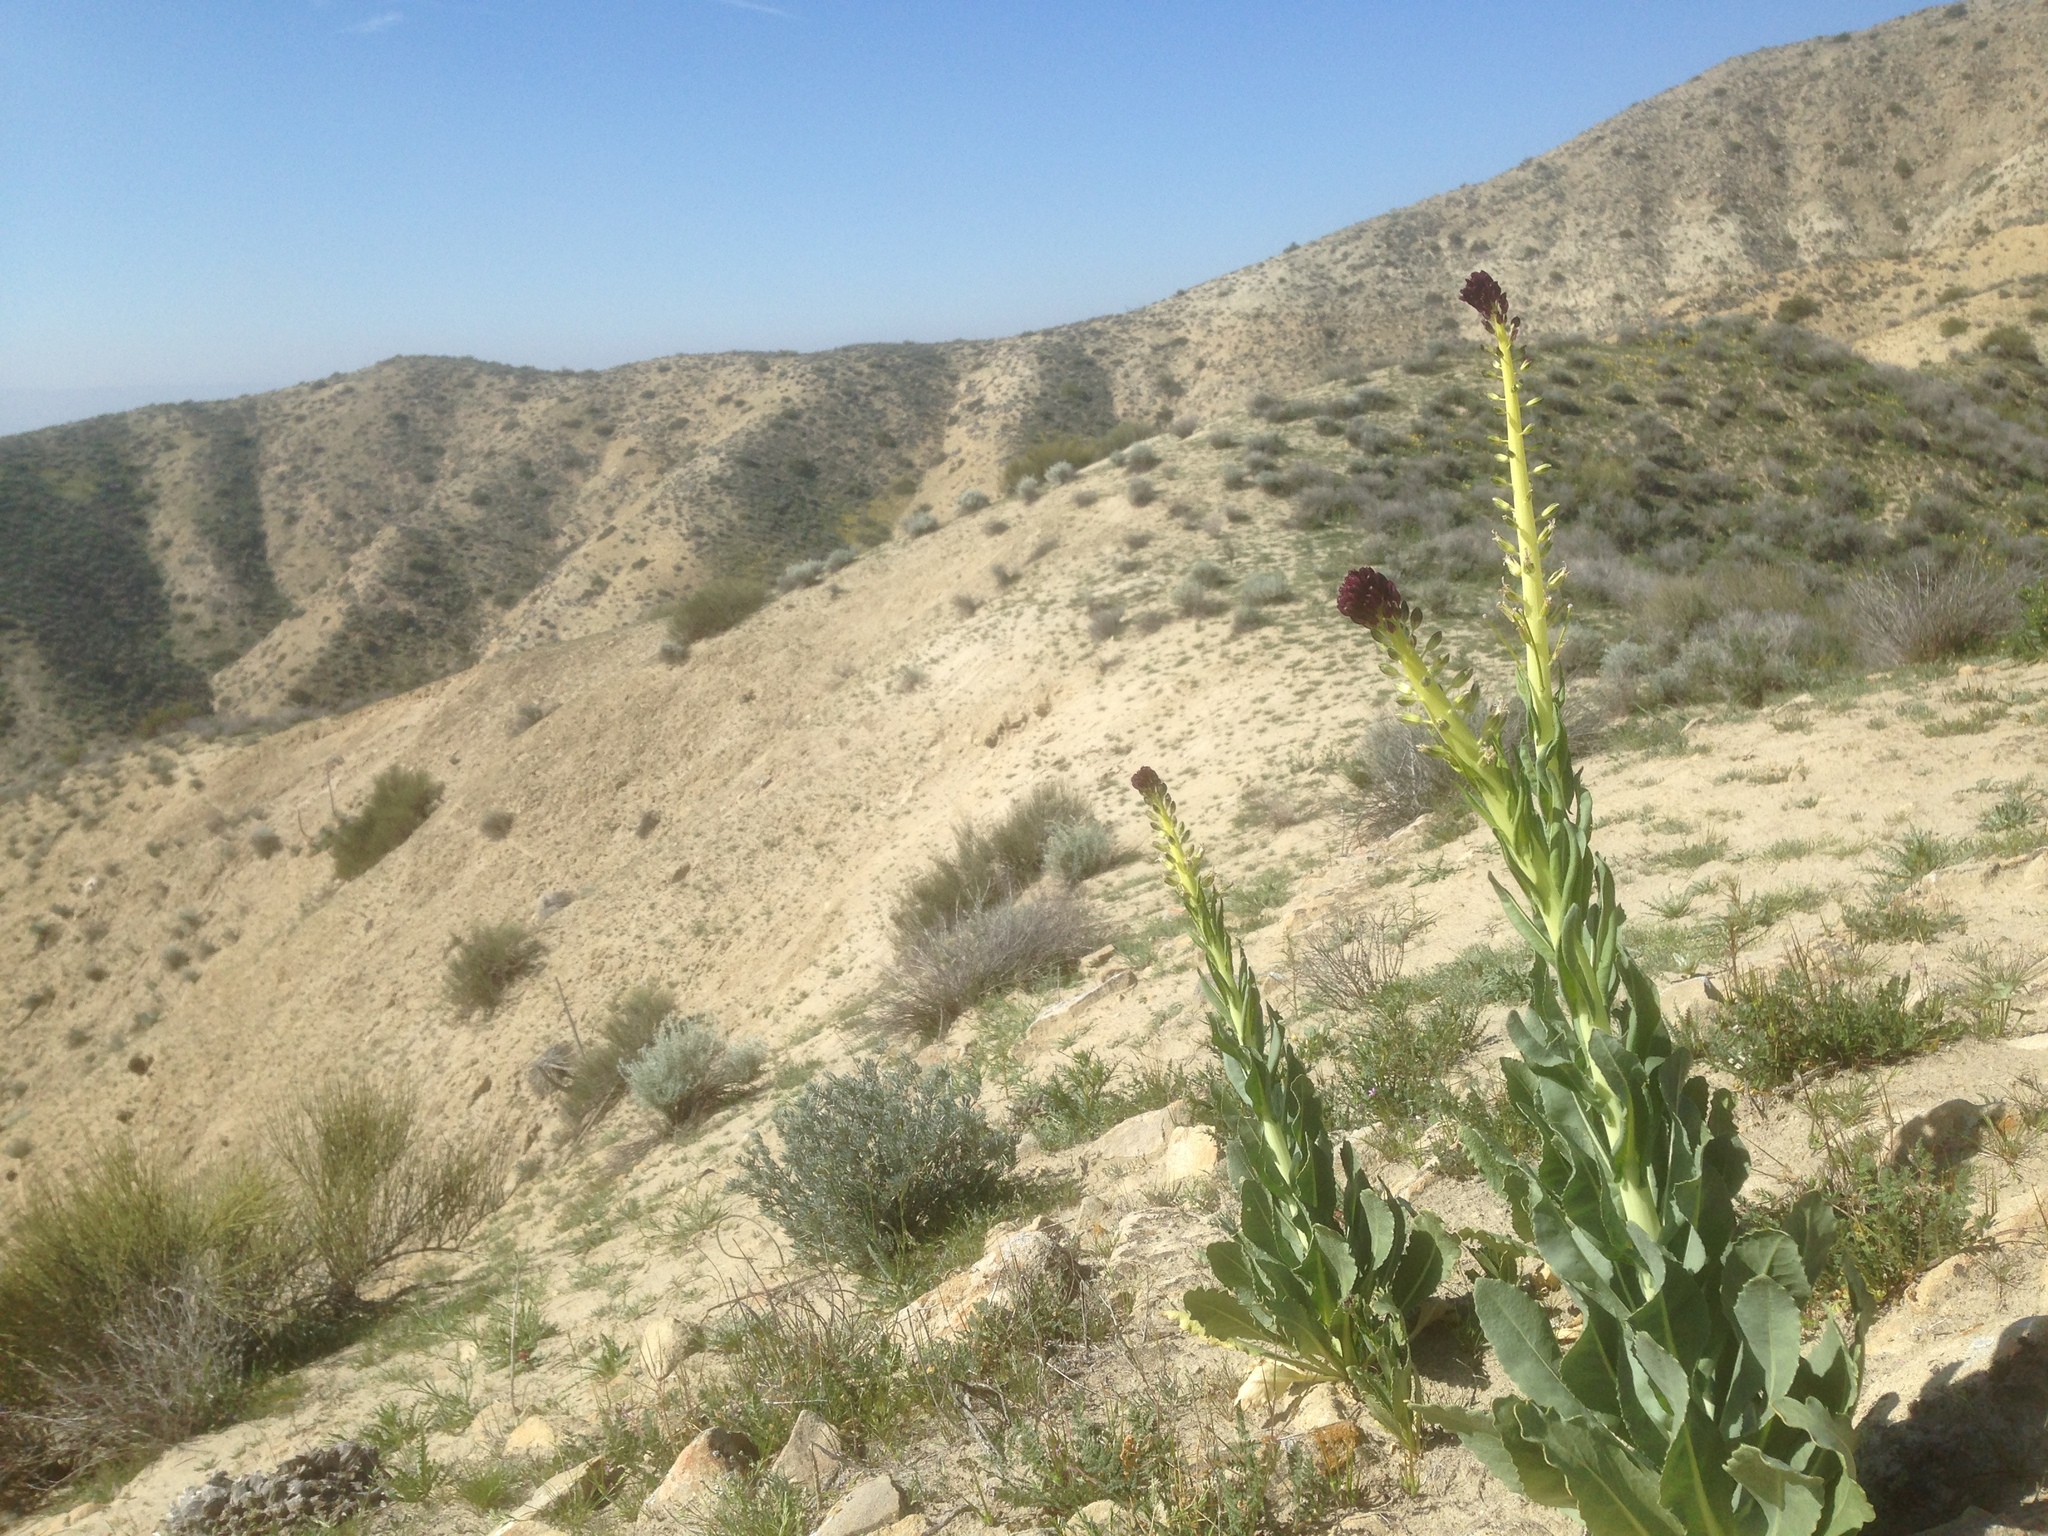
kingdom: Plantae
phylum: Tracheophyta
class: Magnoliopsida
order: Brassicales
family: Brassicaceae
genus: Streptanthus
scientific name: Streptanthus inflatus
